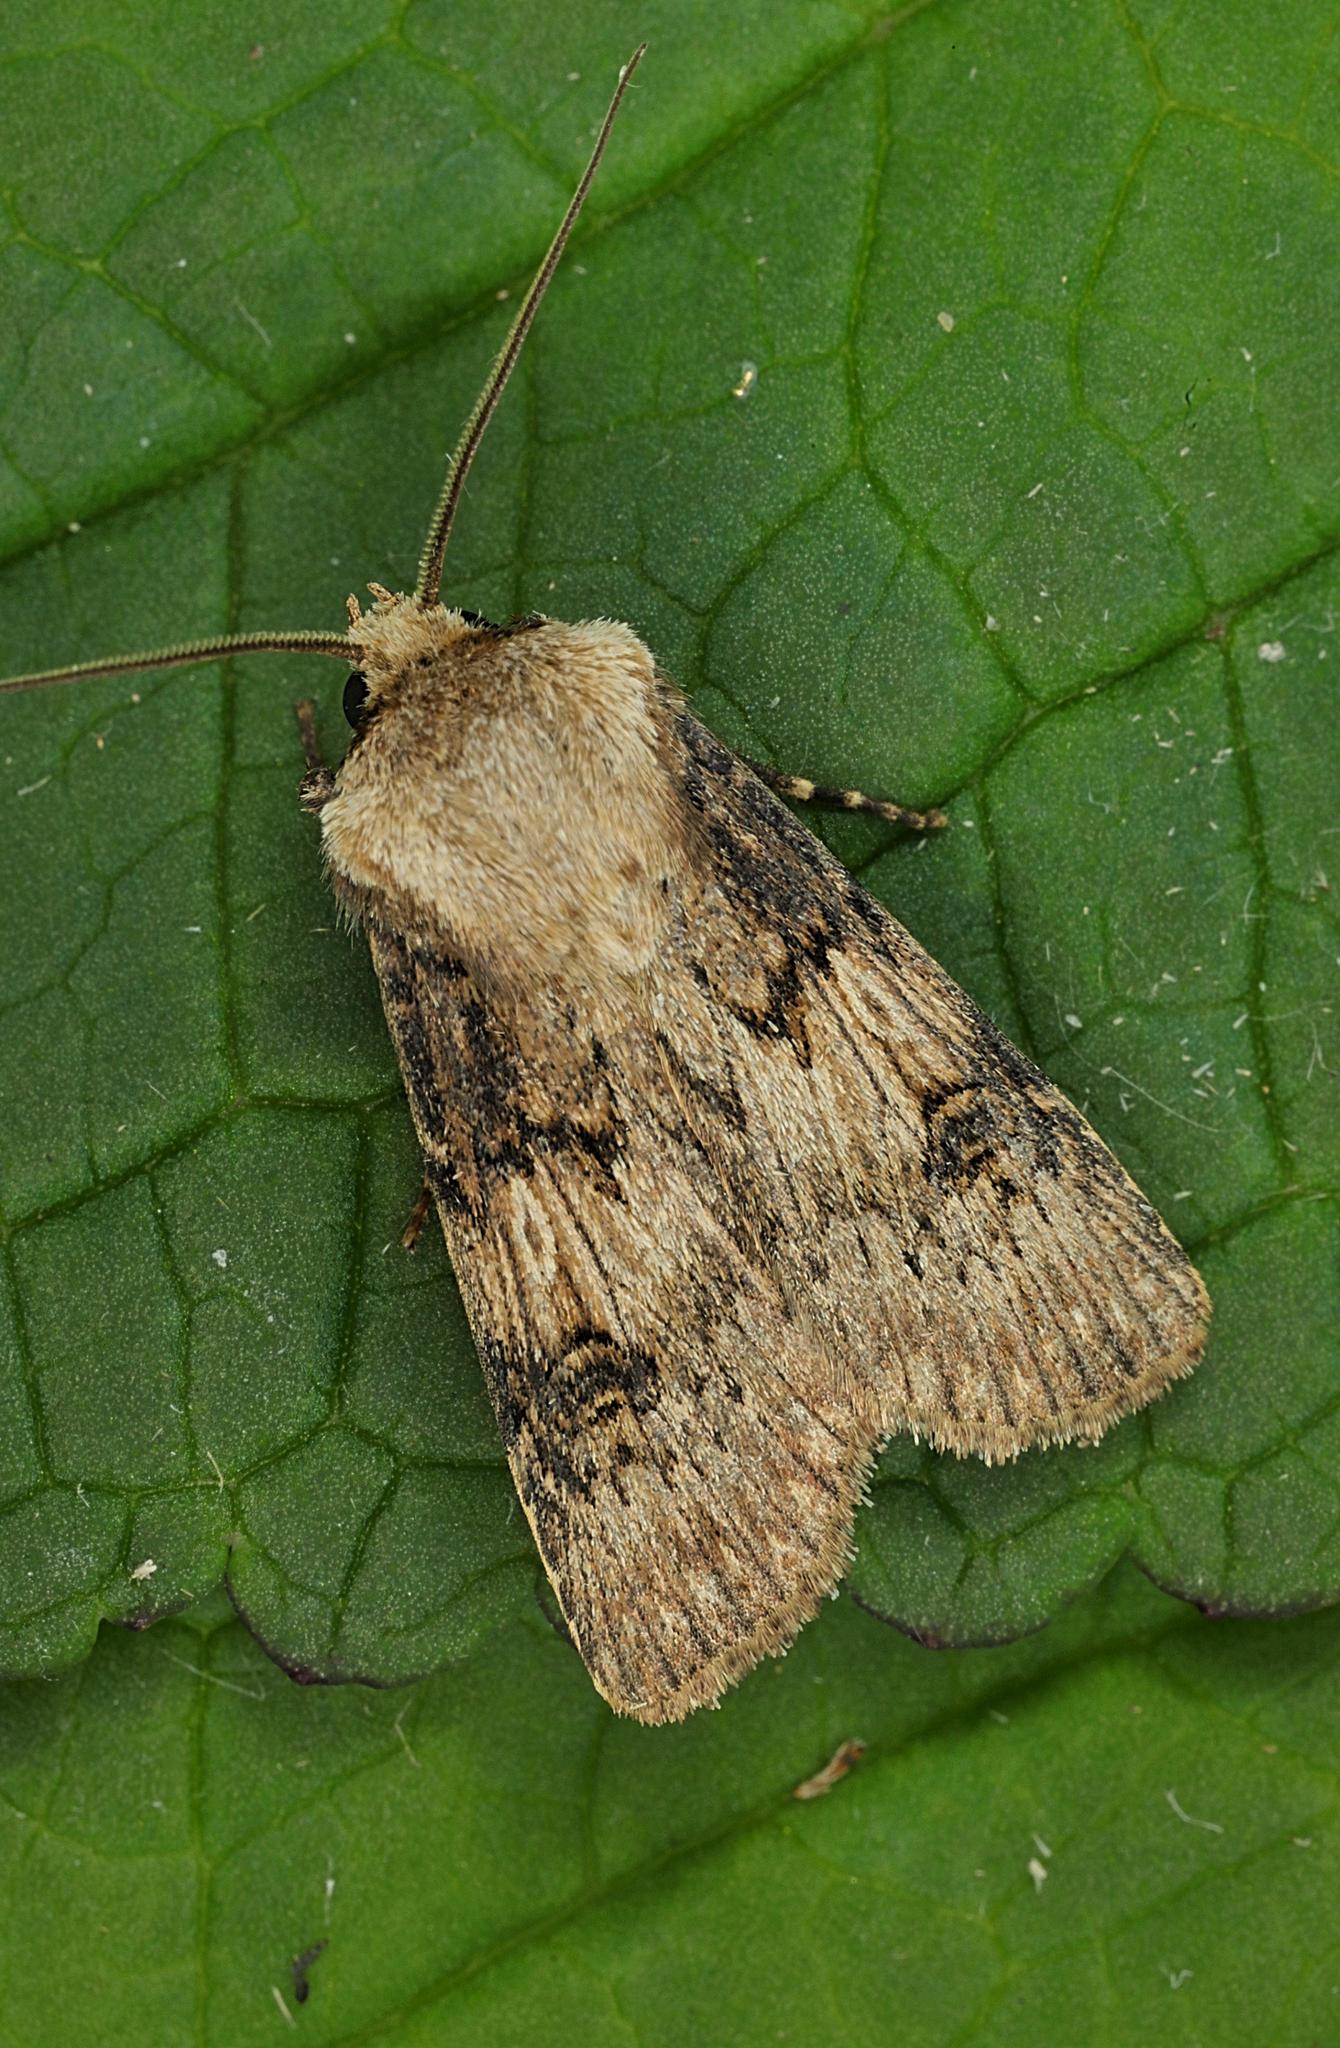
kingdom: Animalia
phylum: Arthropoda
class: Insecta
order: Lepidoptera
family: Noctuidae
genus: Agrotis
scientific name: Agrotis puta
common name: Shuttle-shaped dart
